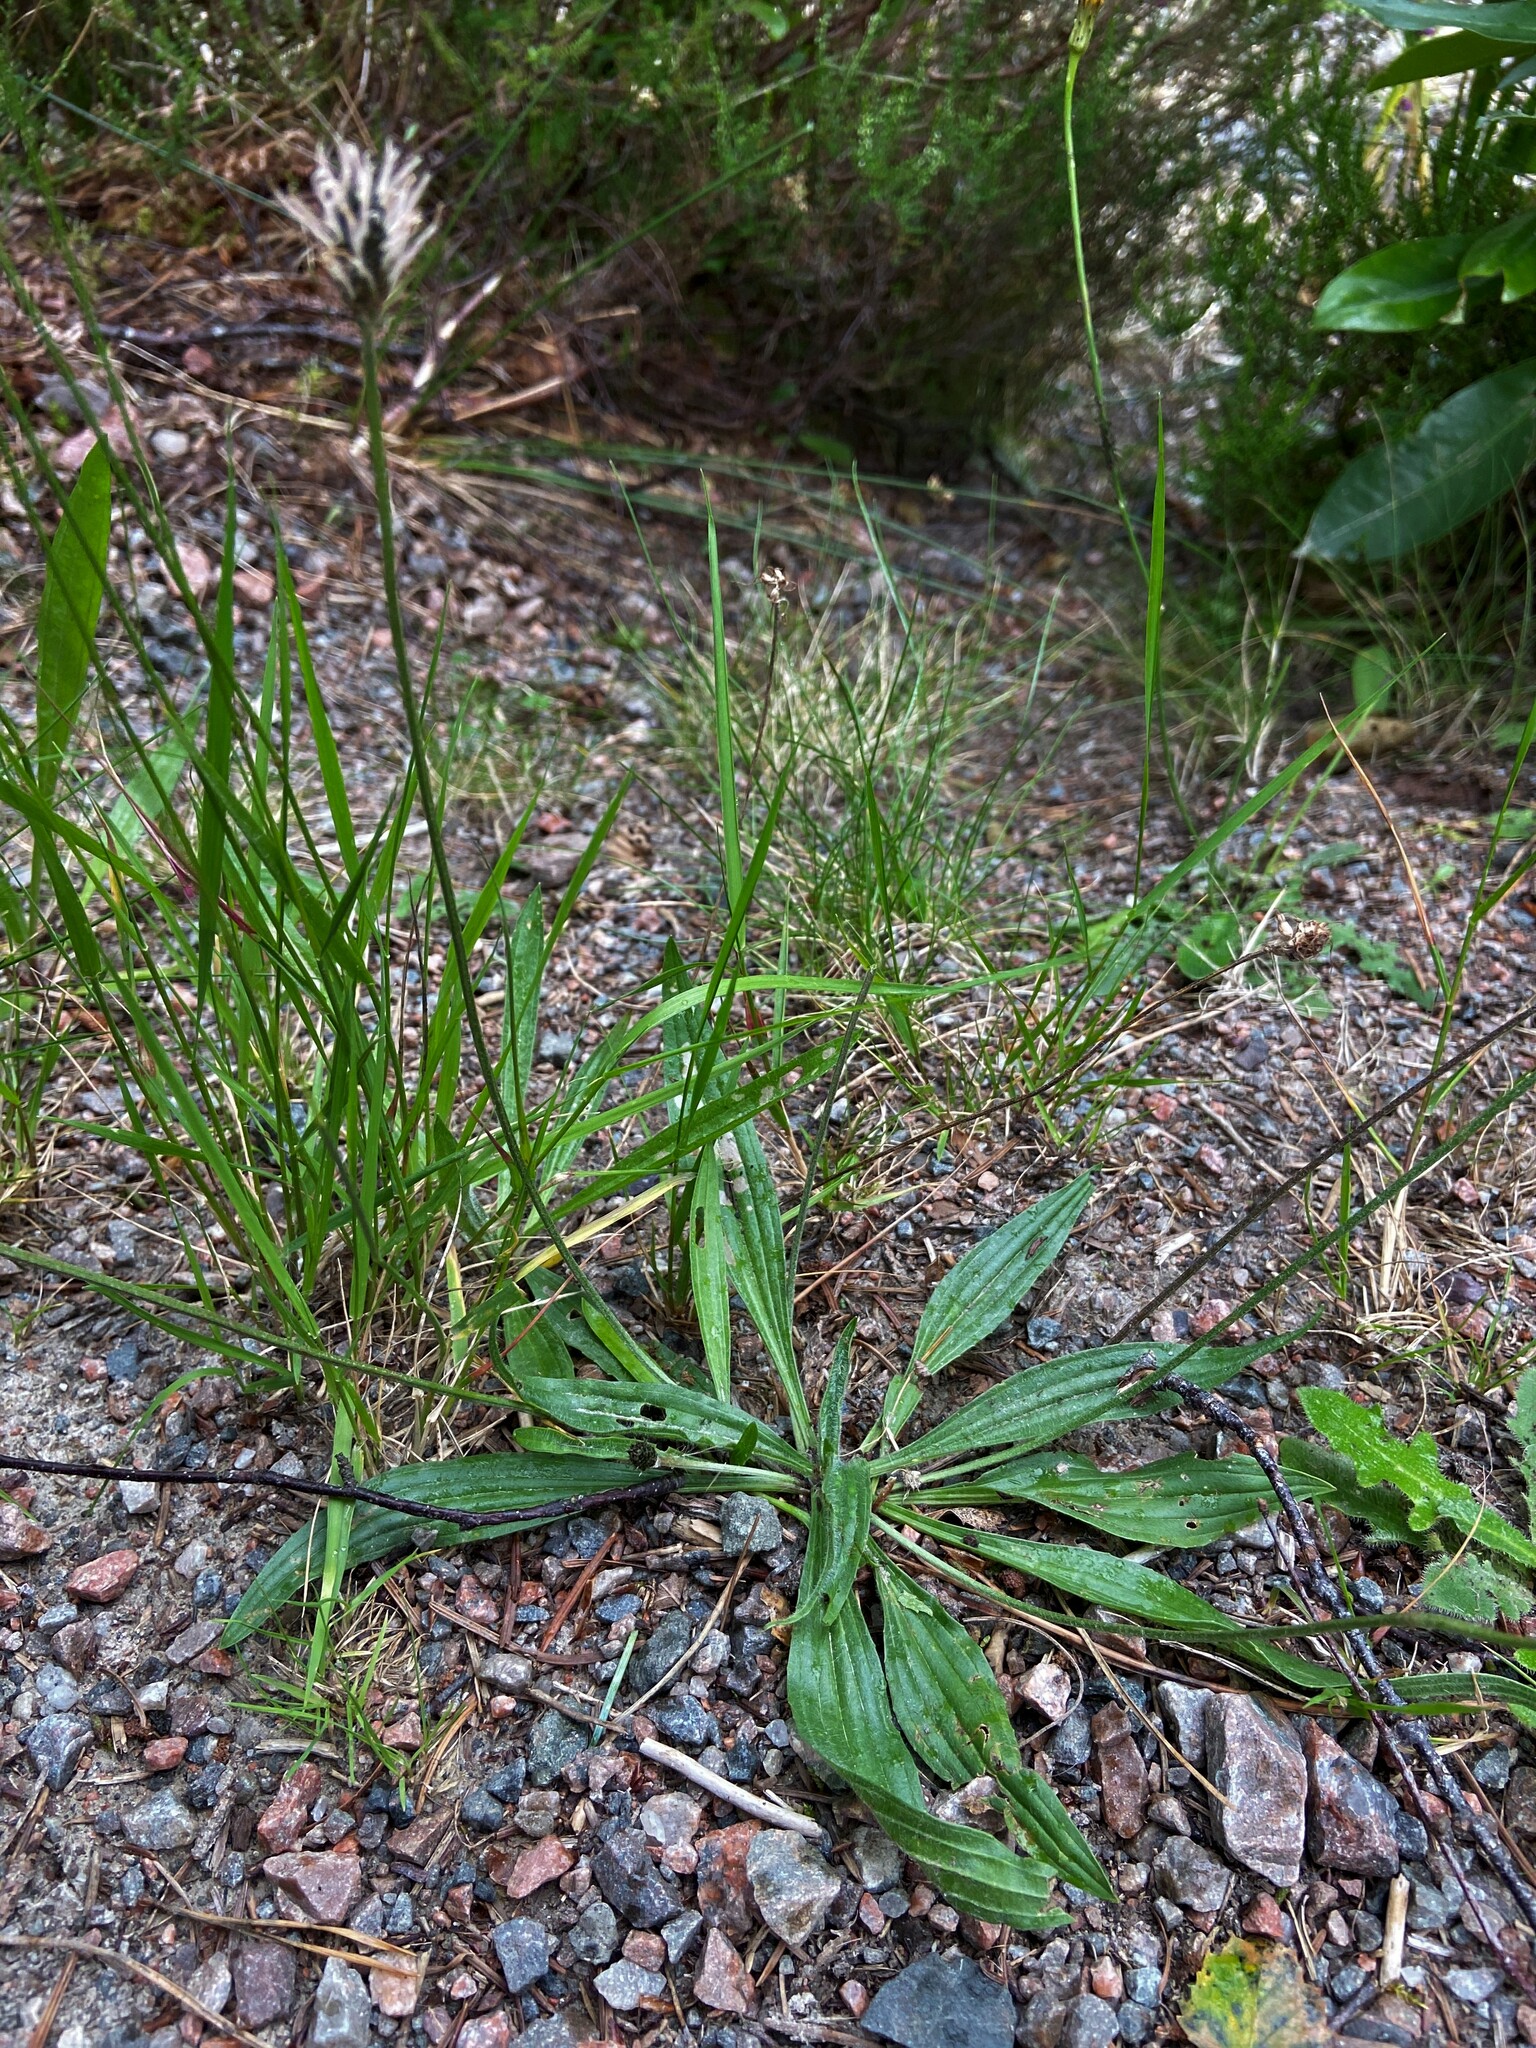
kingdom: Plantae
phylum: Tracheophyta
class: Magnoliopsida
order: Lamiales
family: Plantaginaceae
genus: Plantago
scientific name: Plantago lanceolata
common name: Ribwort plantain
